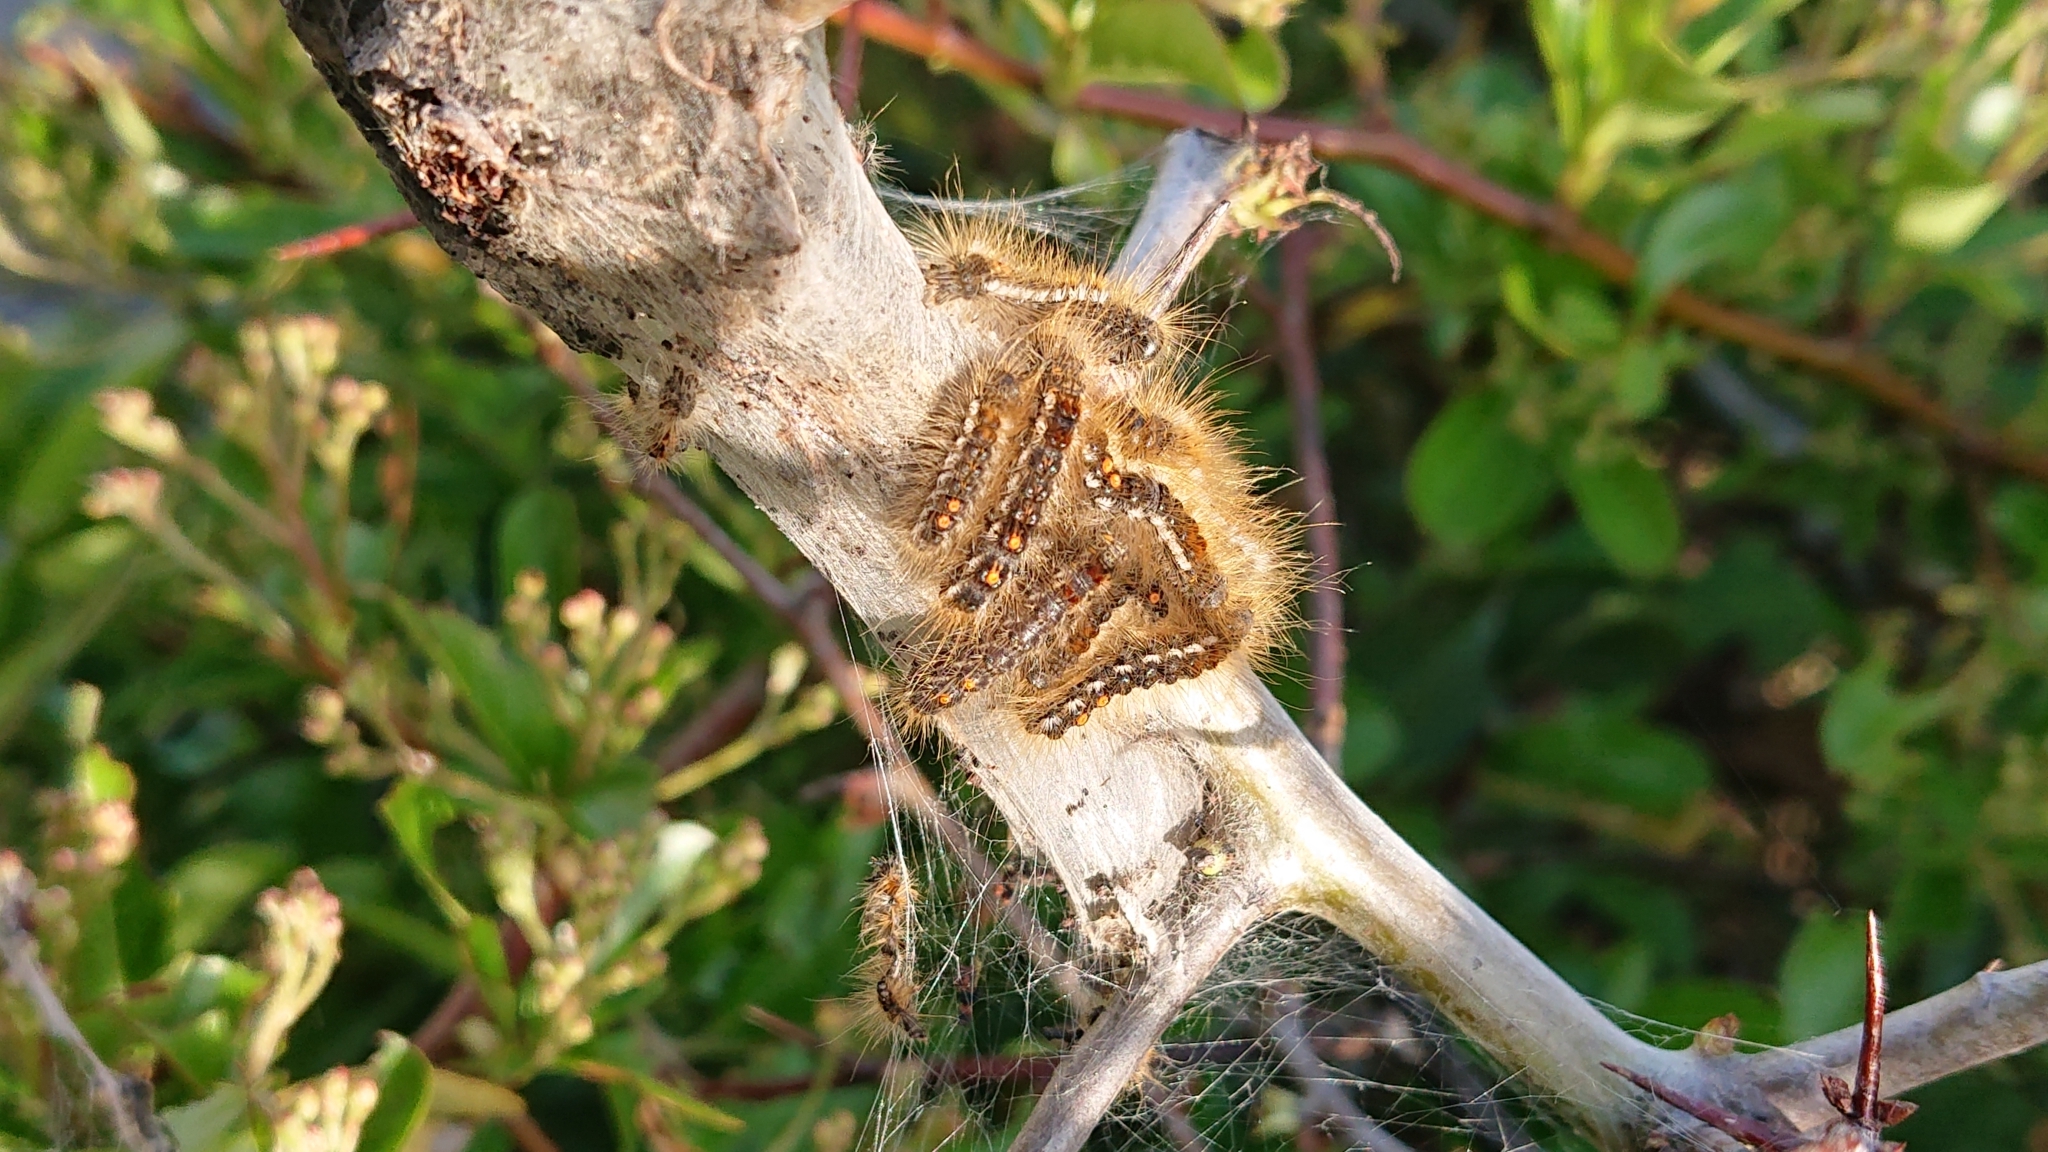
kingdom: Animalia
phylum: Arthropoda
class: Insecta
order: Lepidoptera
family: Erebidae
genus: Euproctis
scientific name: Euproctis chrysorrhoea
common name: Brown-tail
